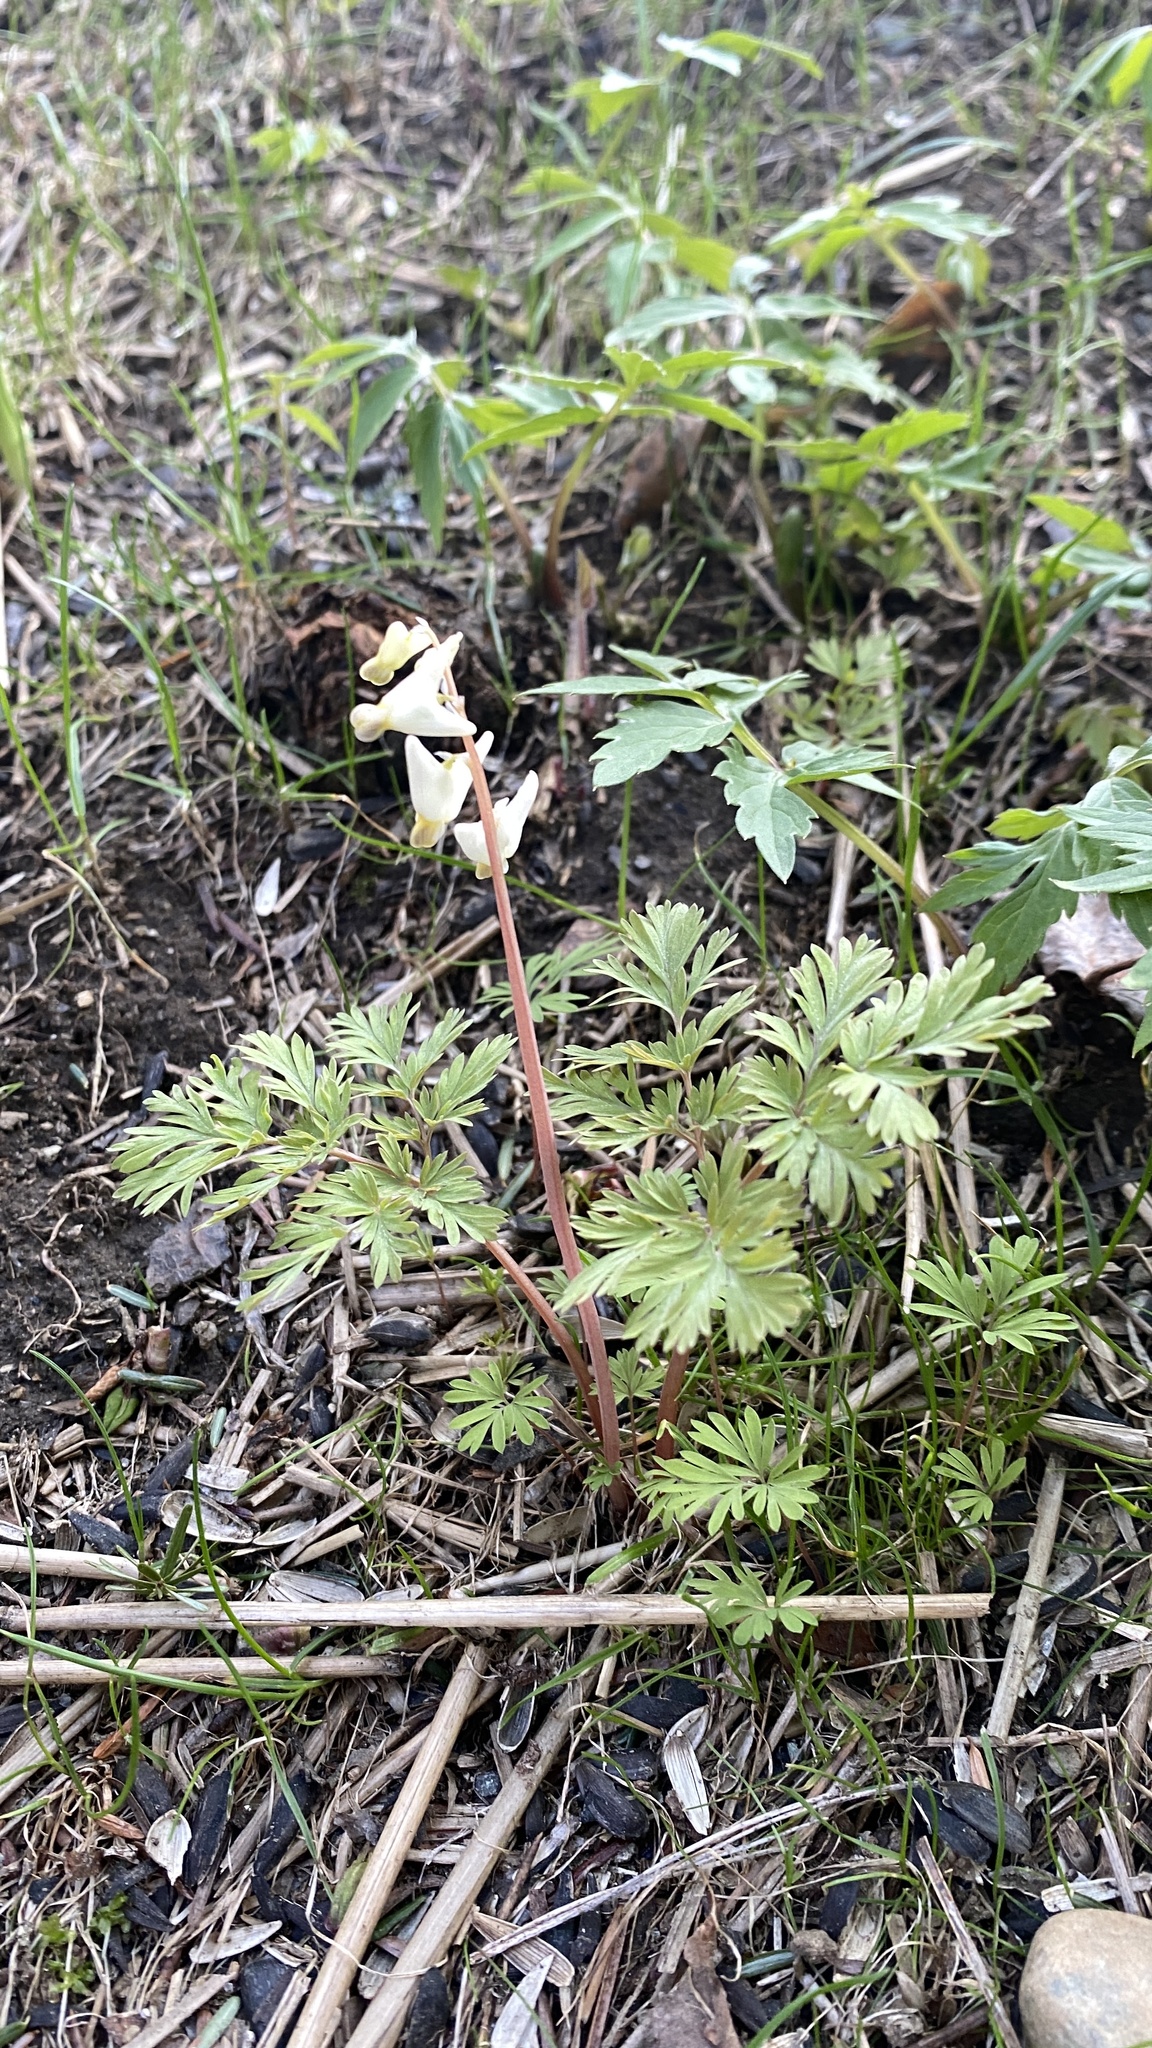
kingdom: Plantae
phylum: Tracheophyta
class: Magnoliopsida
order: Ranunculales
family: Papaveraceae
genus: Dicentra
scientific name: Dicentra cucullaria
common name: Dutchman's breeches
